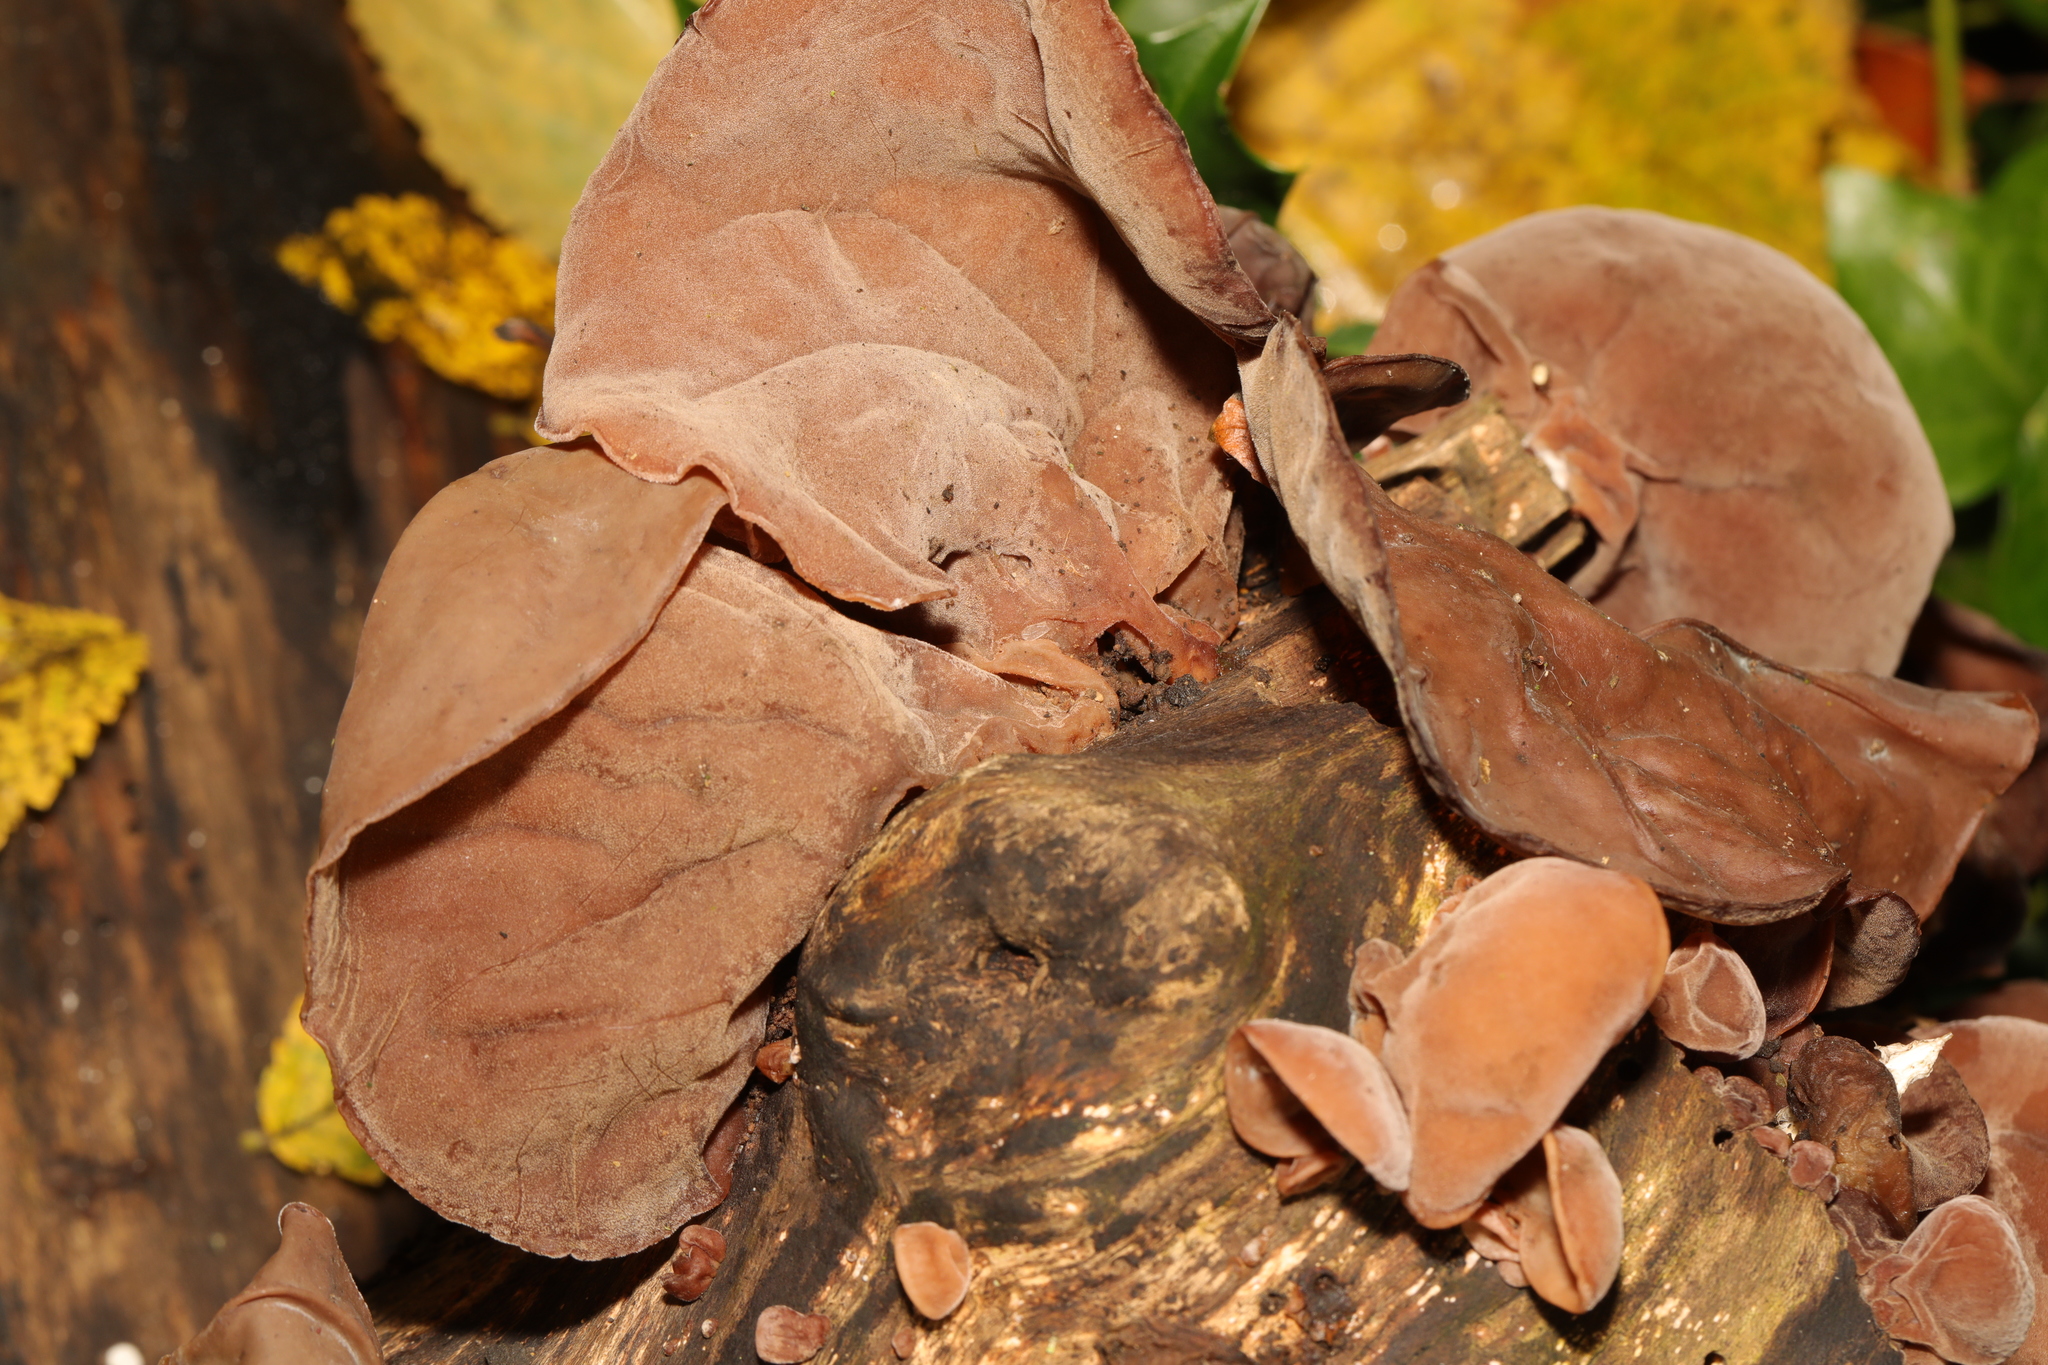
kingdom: Fungi
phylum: Basidiomycota
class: Agaricomycetes
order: Auriculariales
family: Auriculariaceae
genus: Auricularia
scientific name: Auricularia auricula-judae
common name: Jelly ear
